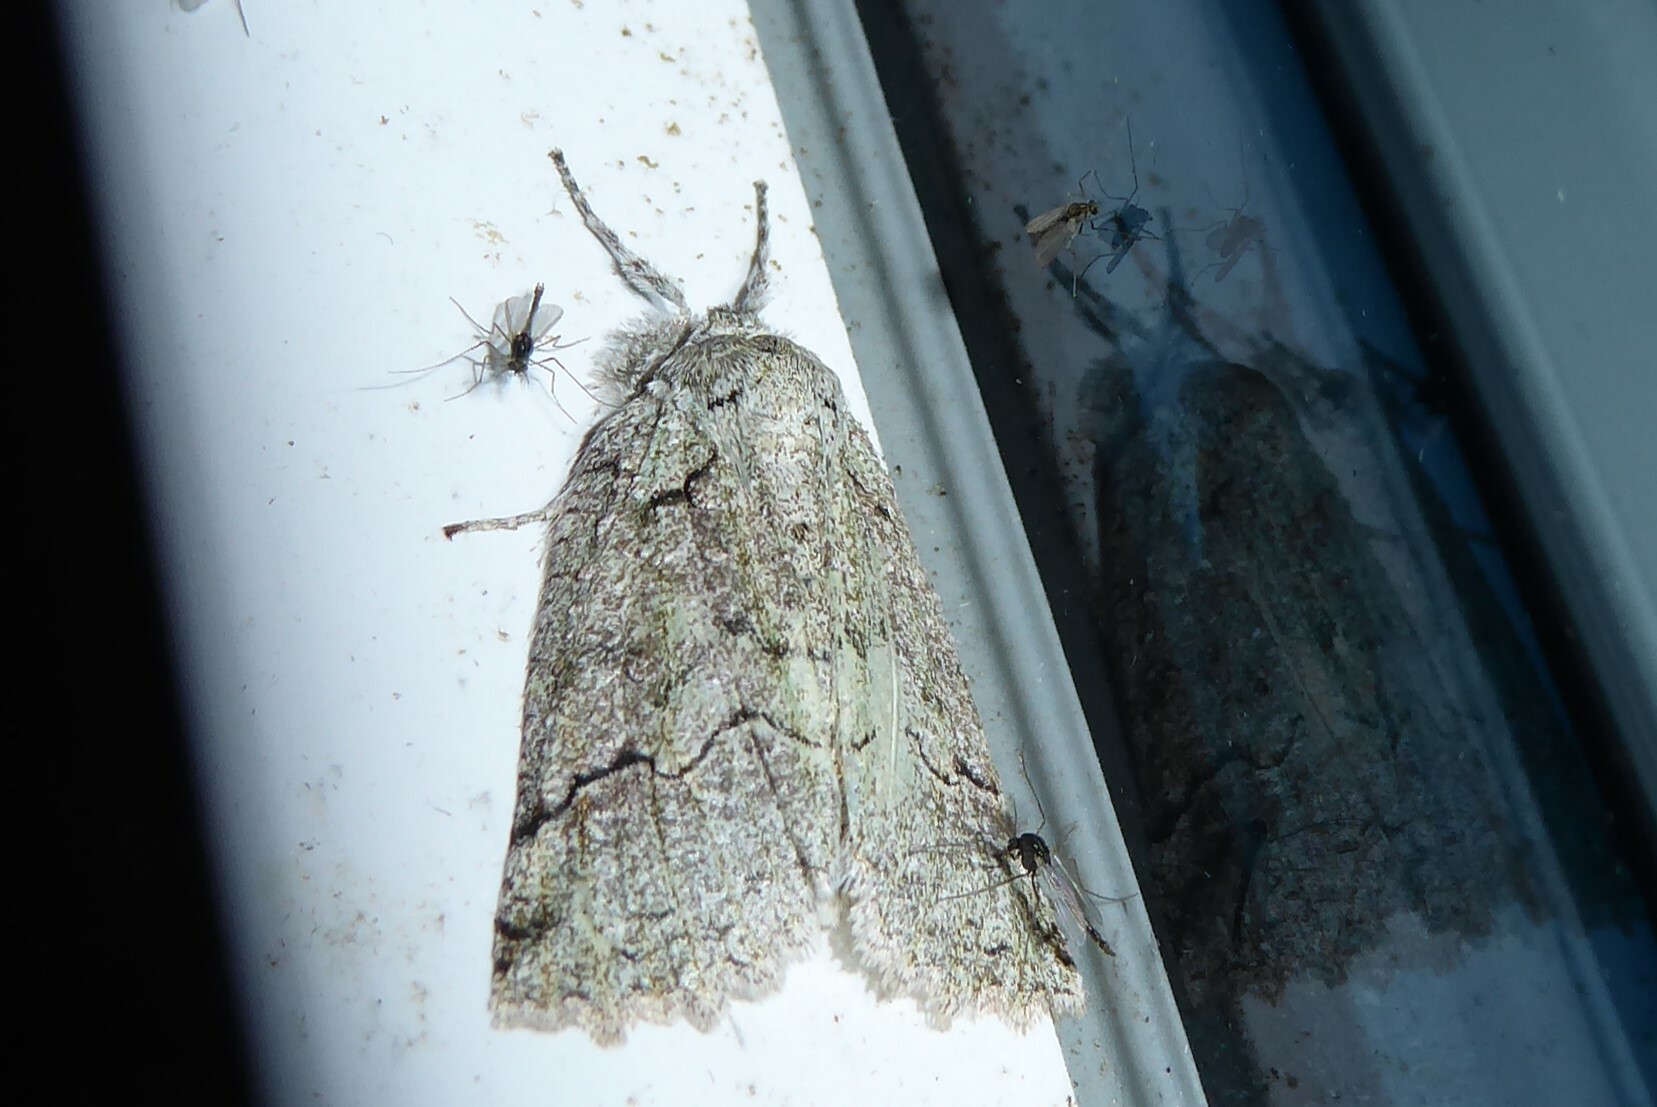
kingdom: Animalia
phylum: Arthropoda
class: Insecta
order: Lepidoptera
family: Geometridae
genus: Declana
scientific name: Declana floccosa
